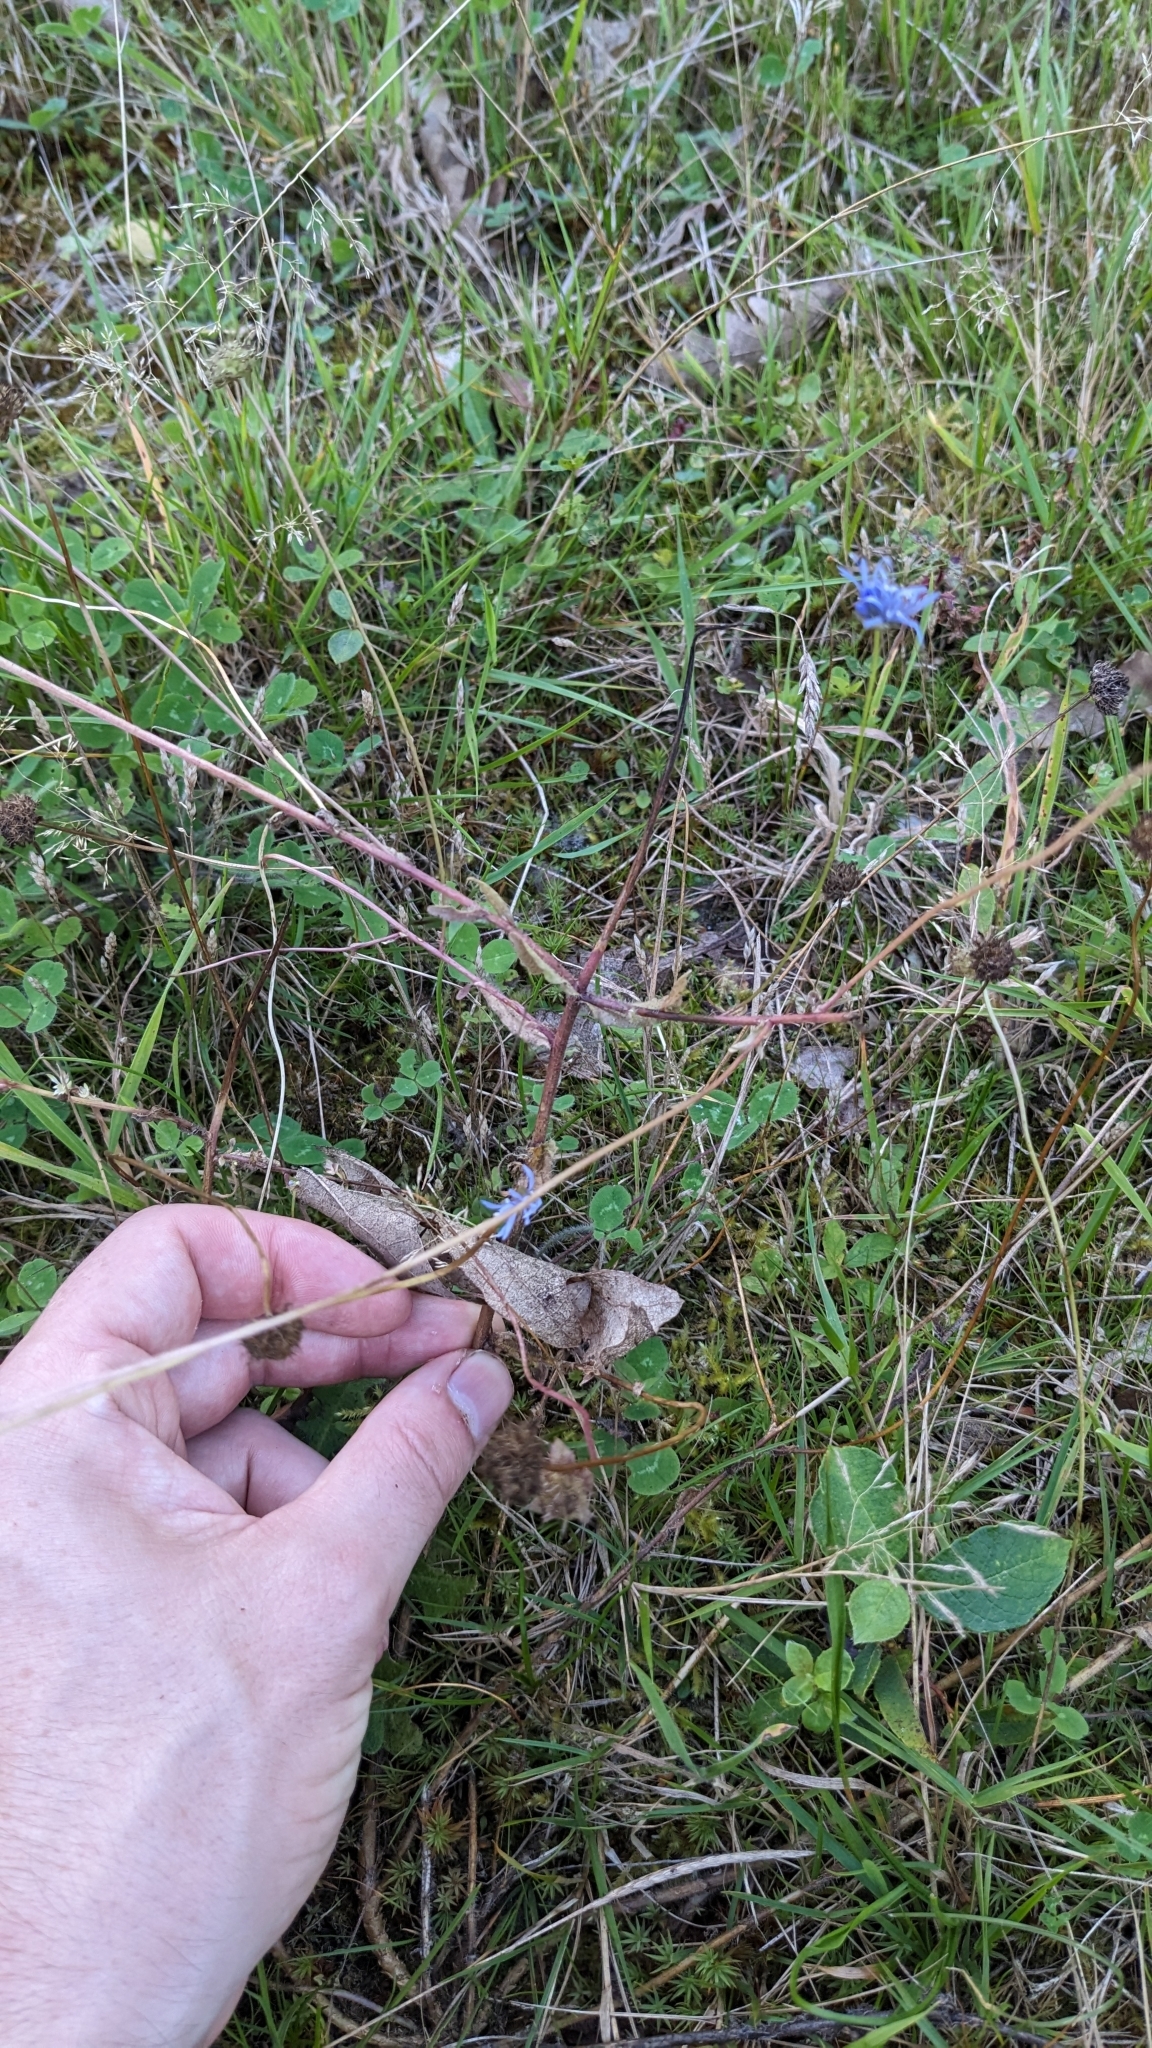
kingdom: Plantae
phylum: Tracheophyta
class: Magnoliopsida
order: Asterales
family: Campanulaceae
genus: Jasione
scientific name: Jasione montana
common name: Sheep's-bit
